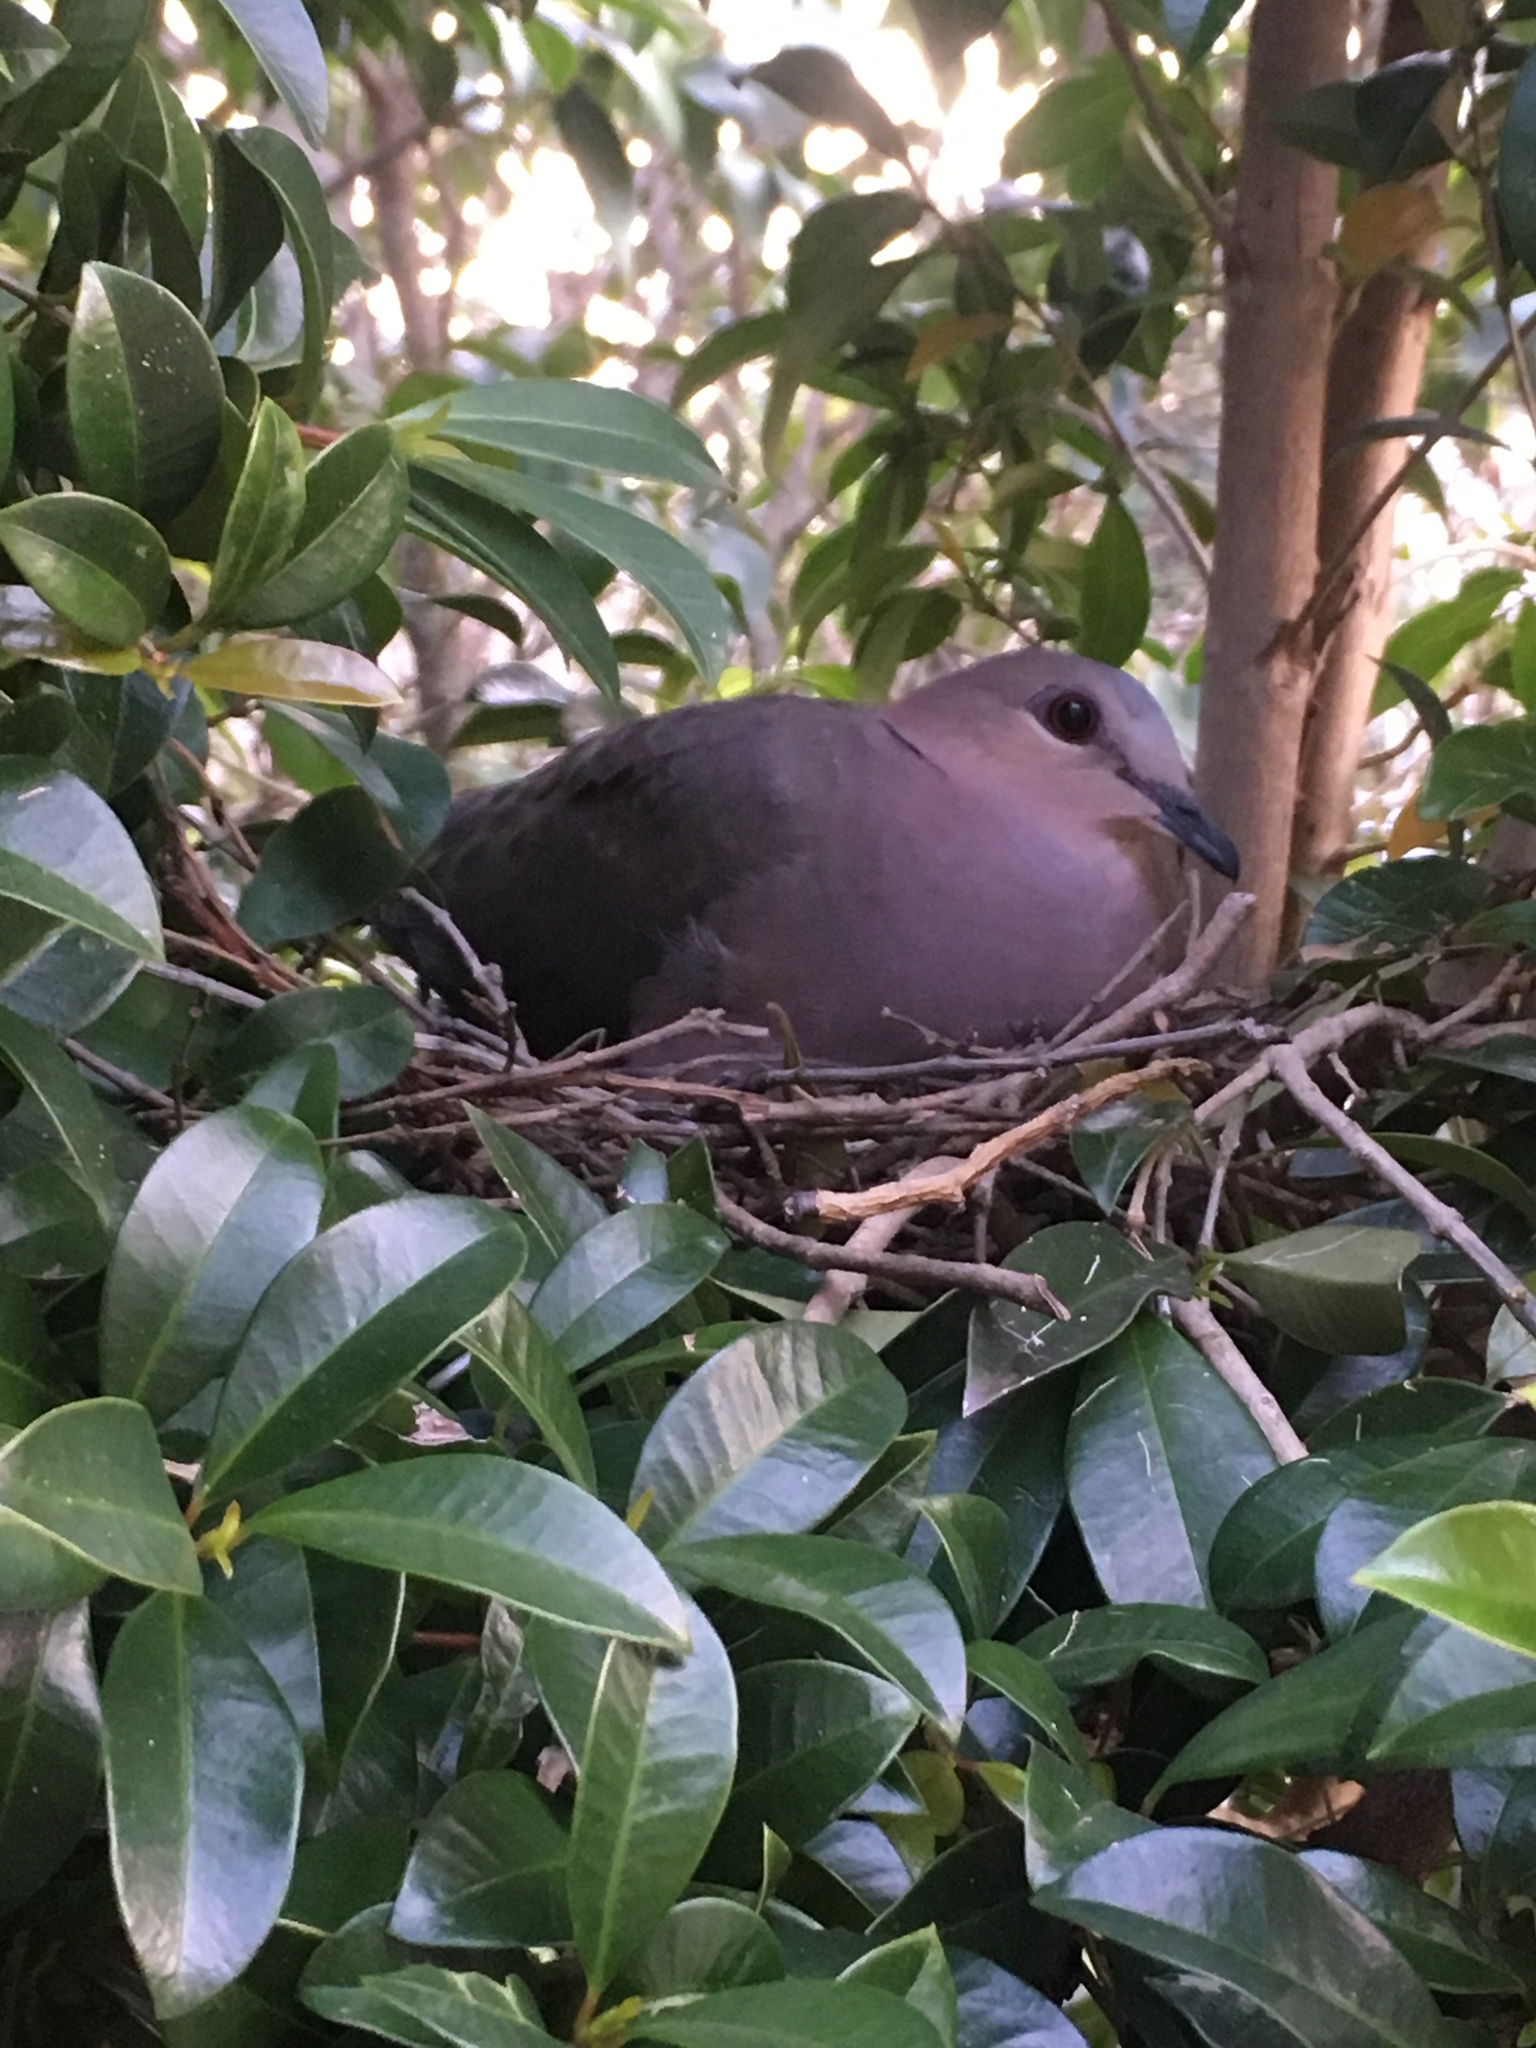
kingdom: Animalia
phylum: Chordata
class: Aves
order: Columbiformes
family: Columbidae
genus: Streptopelia
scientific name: Streptopelia semitorquata
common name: Red-eyed dove
